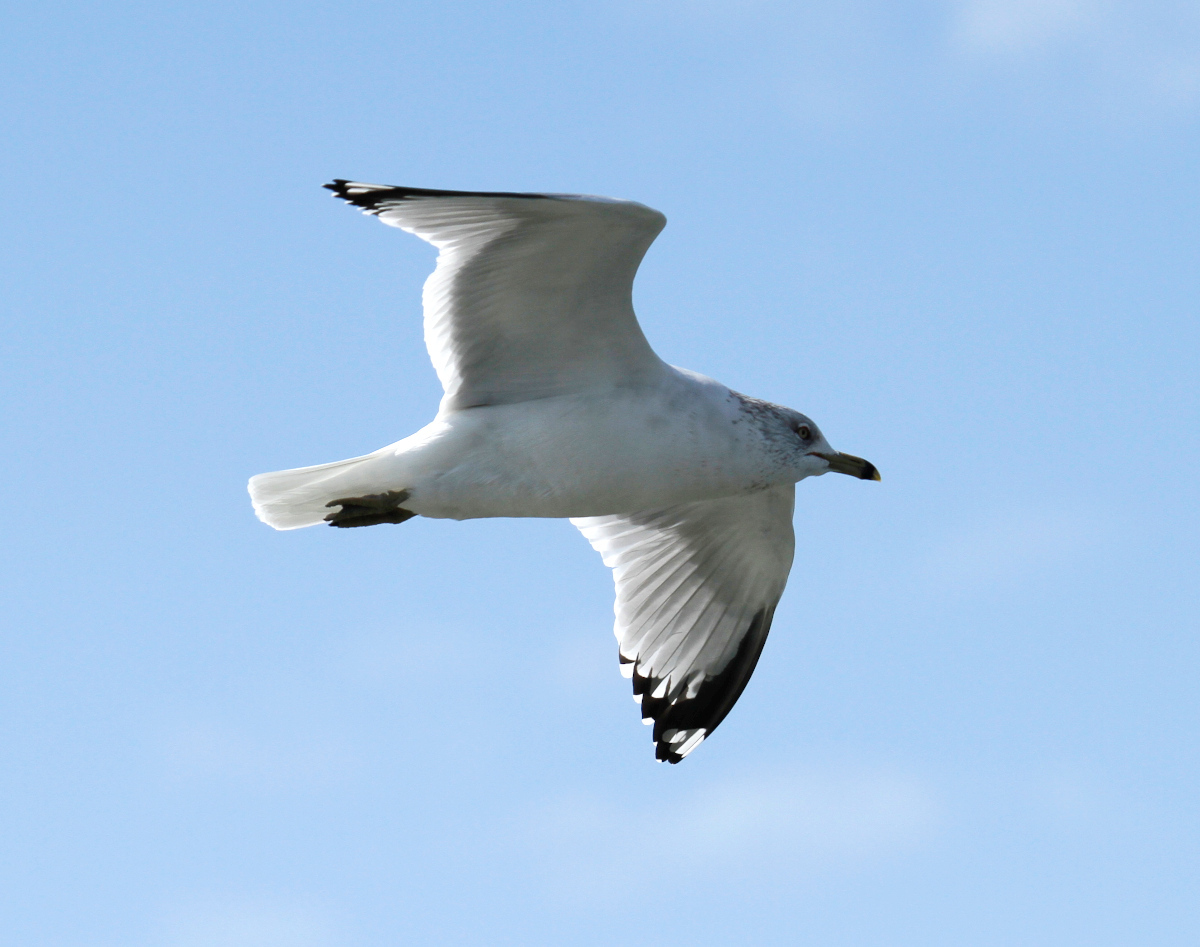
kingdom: Animalia
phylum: Chordata
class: Aves
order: Charadriiformes
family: Laridae
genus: Larus
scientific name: Larus delawarensis
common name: Ring-billed gull
